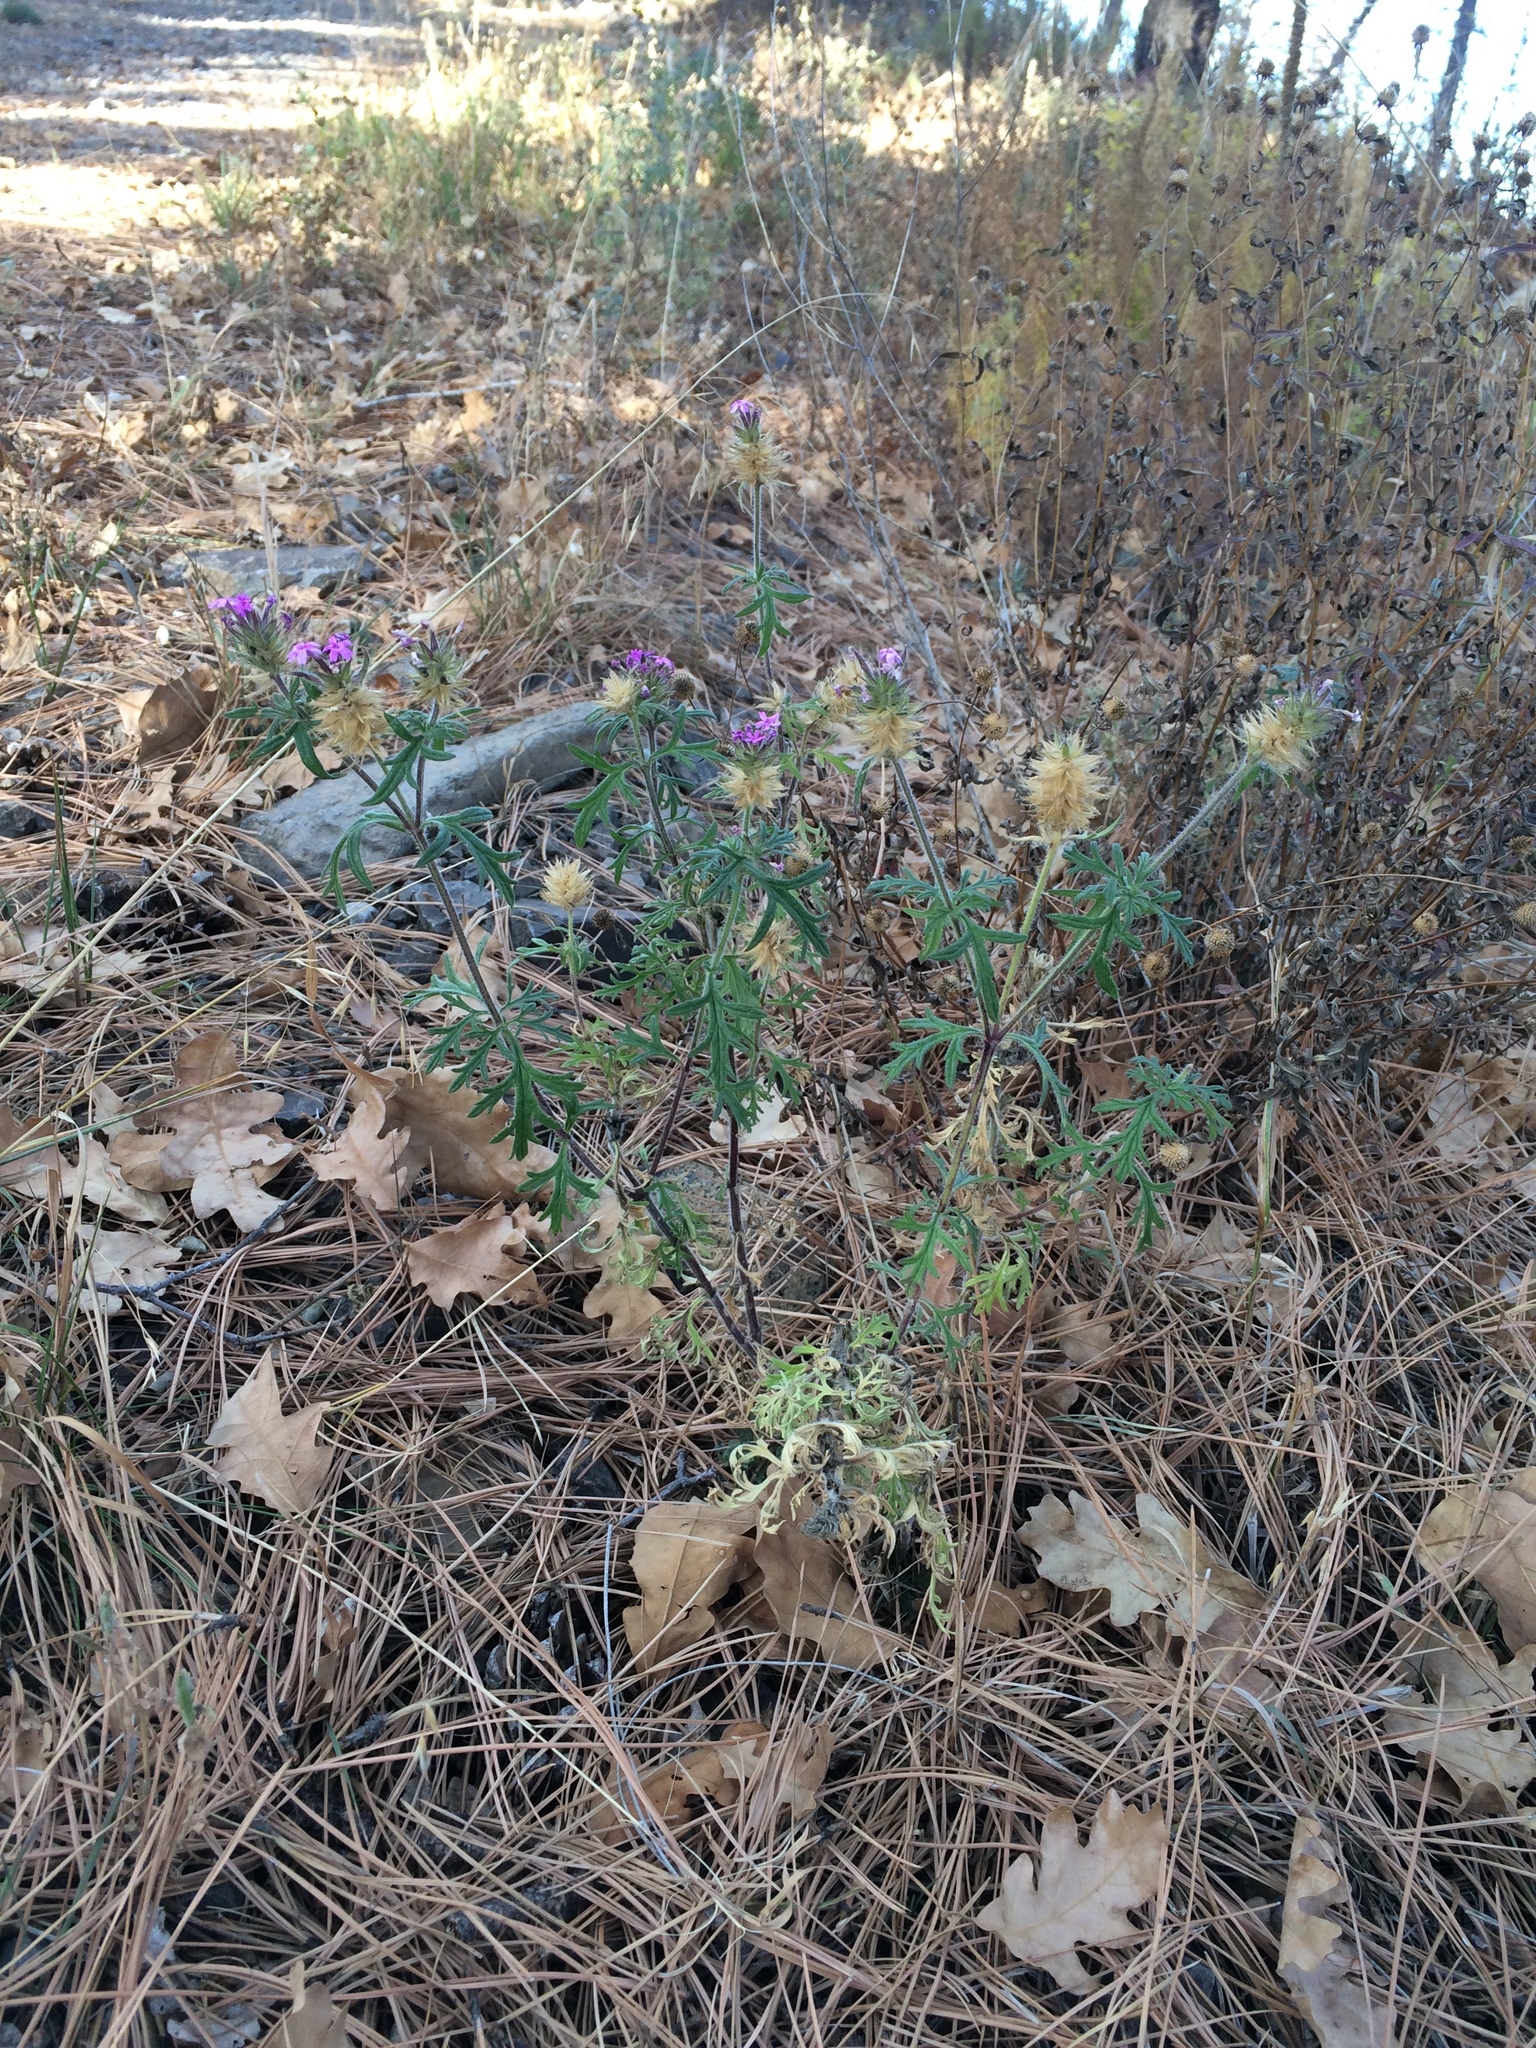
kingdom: Plantae
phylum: Tracheophyta
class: Magnoliopsida
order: Lamiales
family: Verbenaceae
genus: Verbena
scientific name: Verbena chiricahensis
